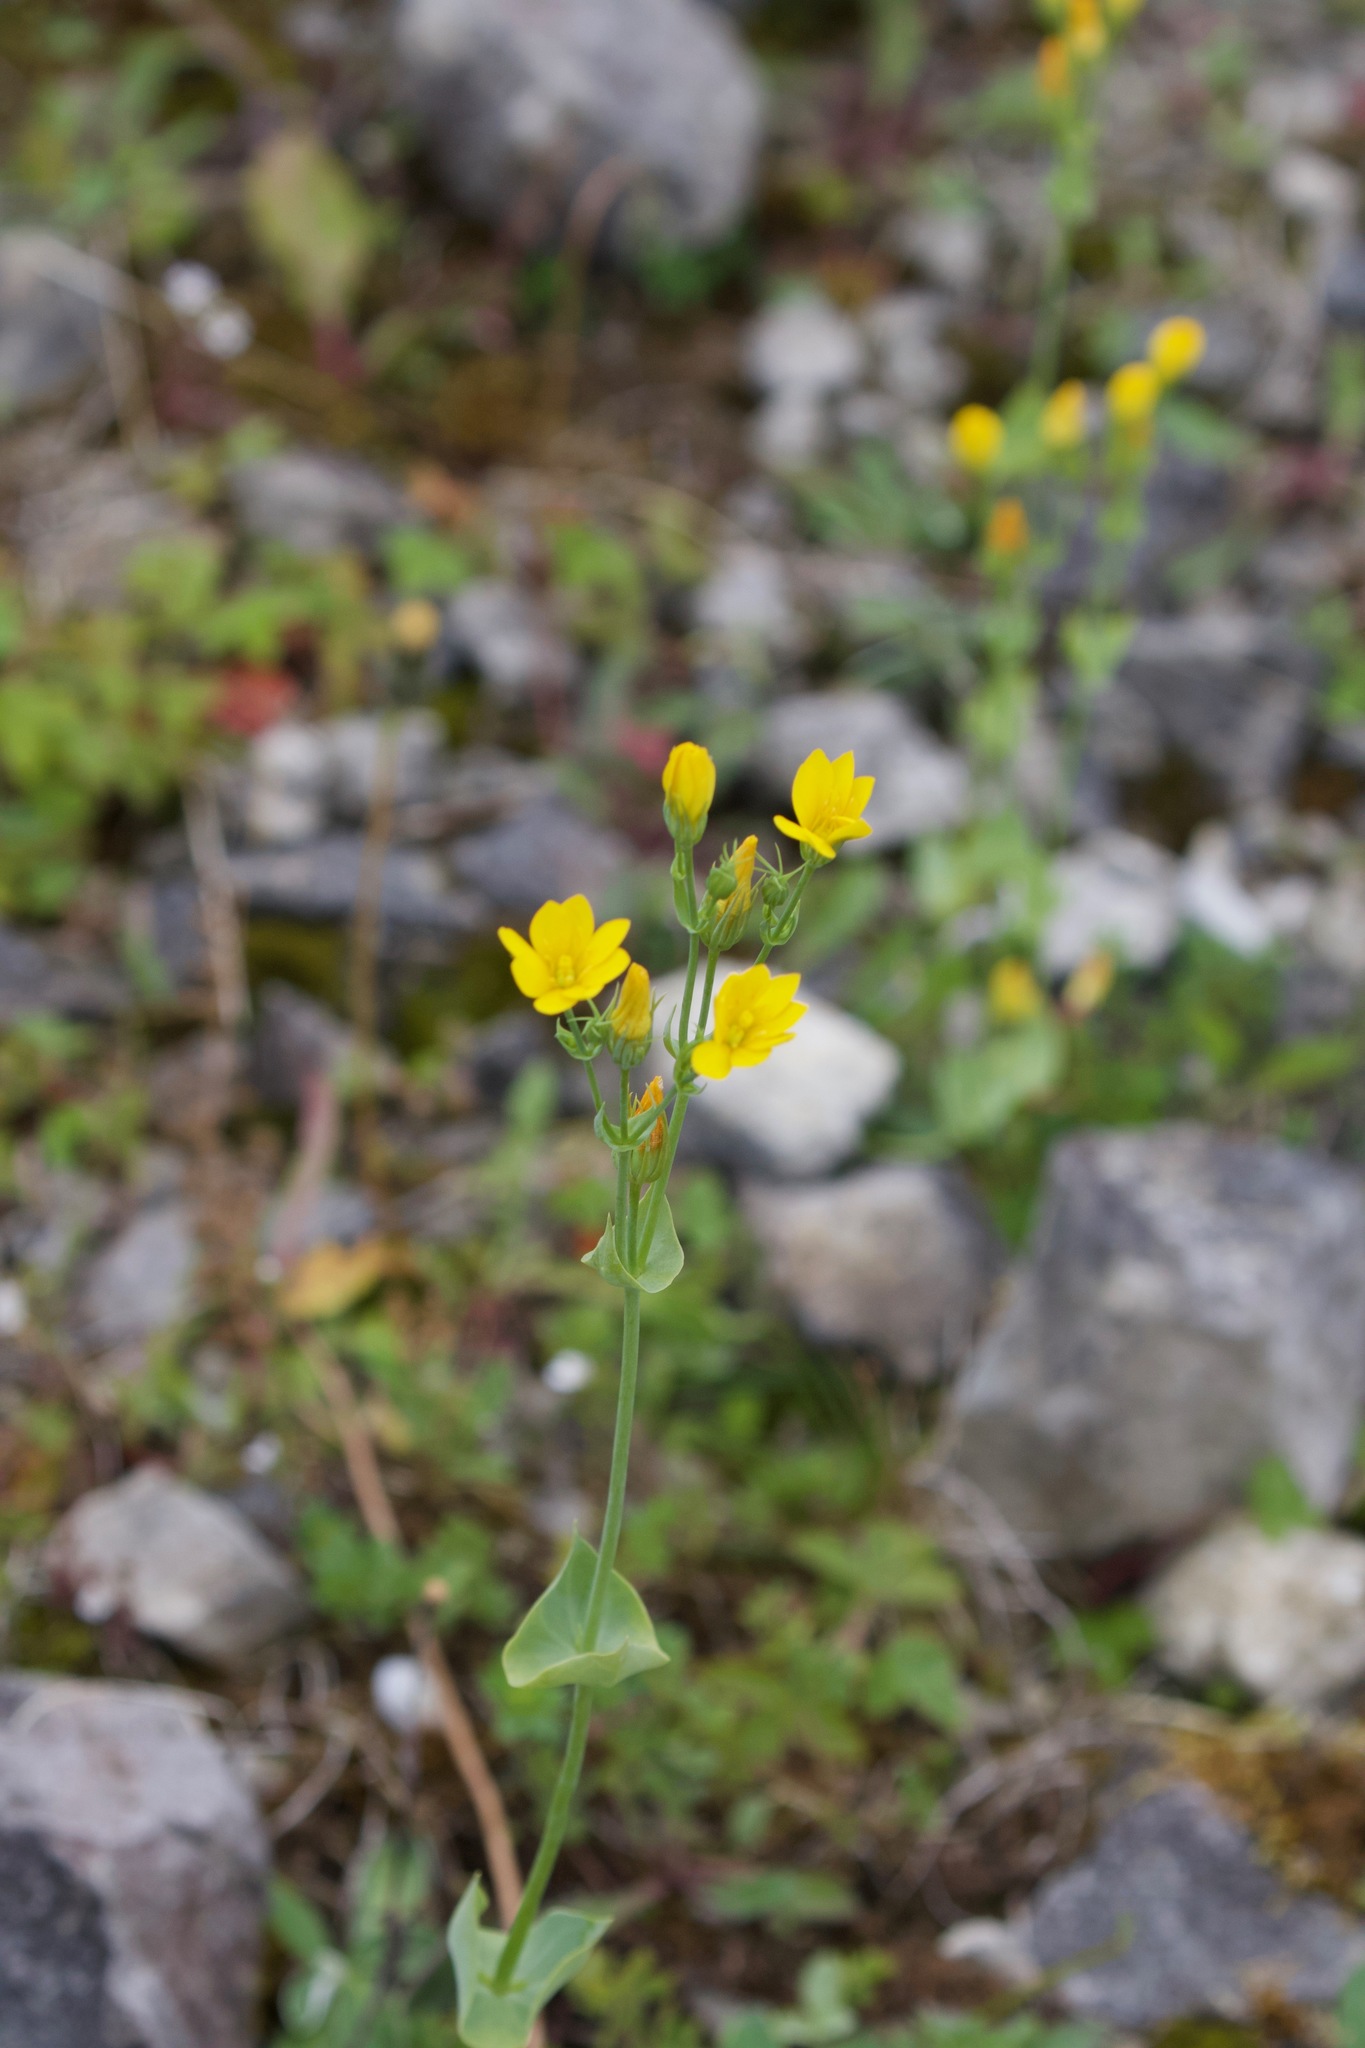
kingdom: Plantae
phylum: Tracheophyta
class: Magnoliopsida
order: Gentianales
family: Gentianaceae
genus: Blackstonia
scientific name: Blackstonia perfoliata
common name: Yellow-wort
